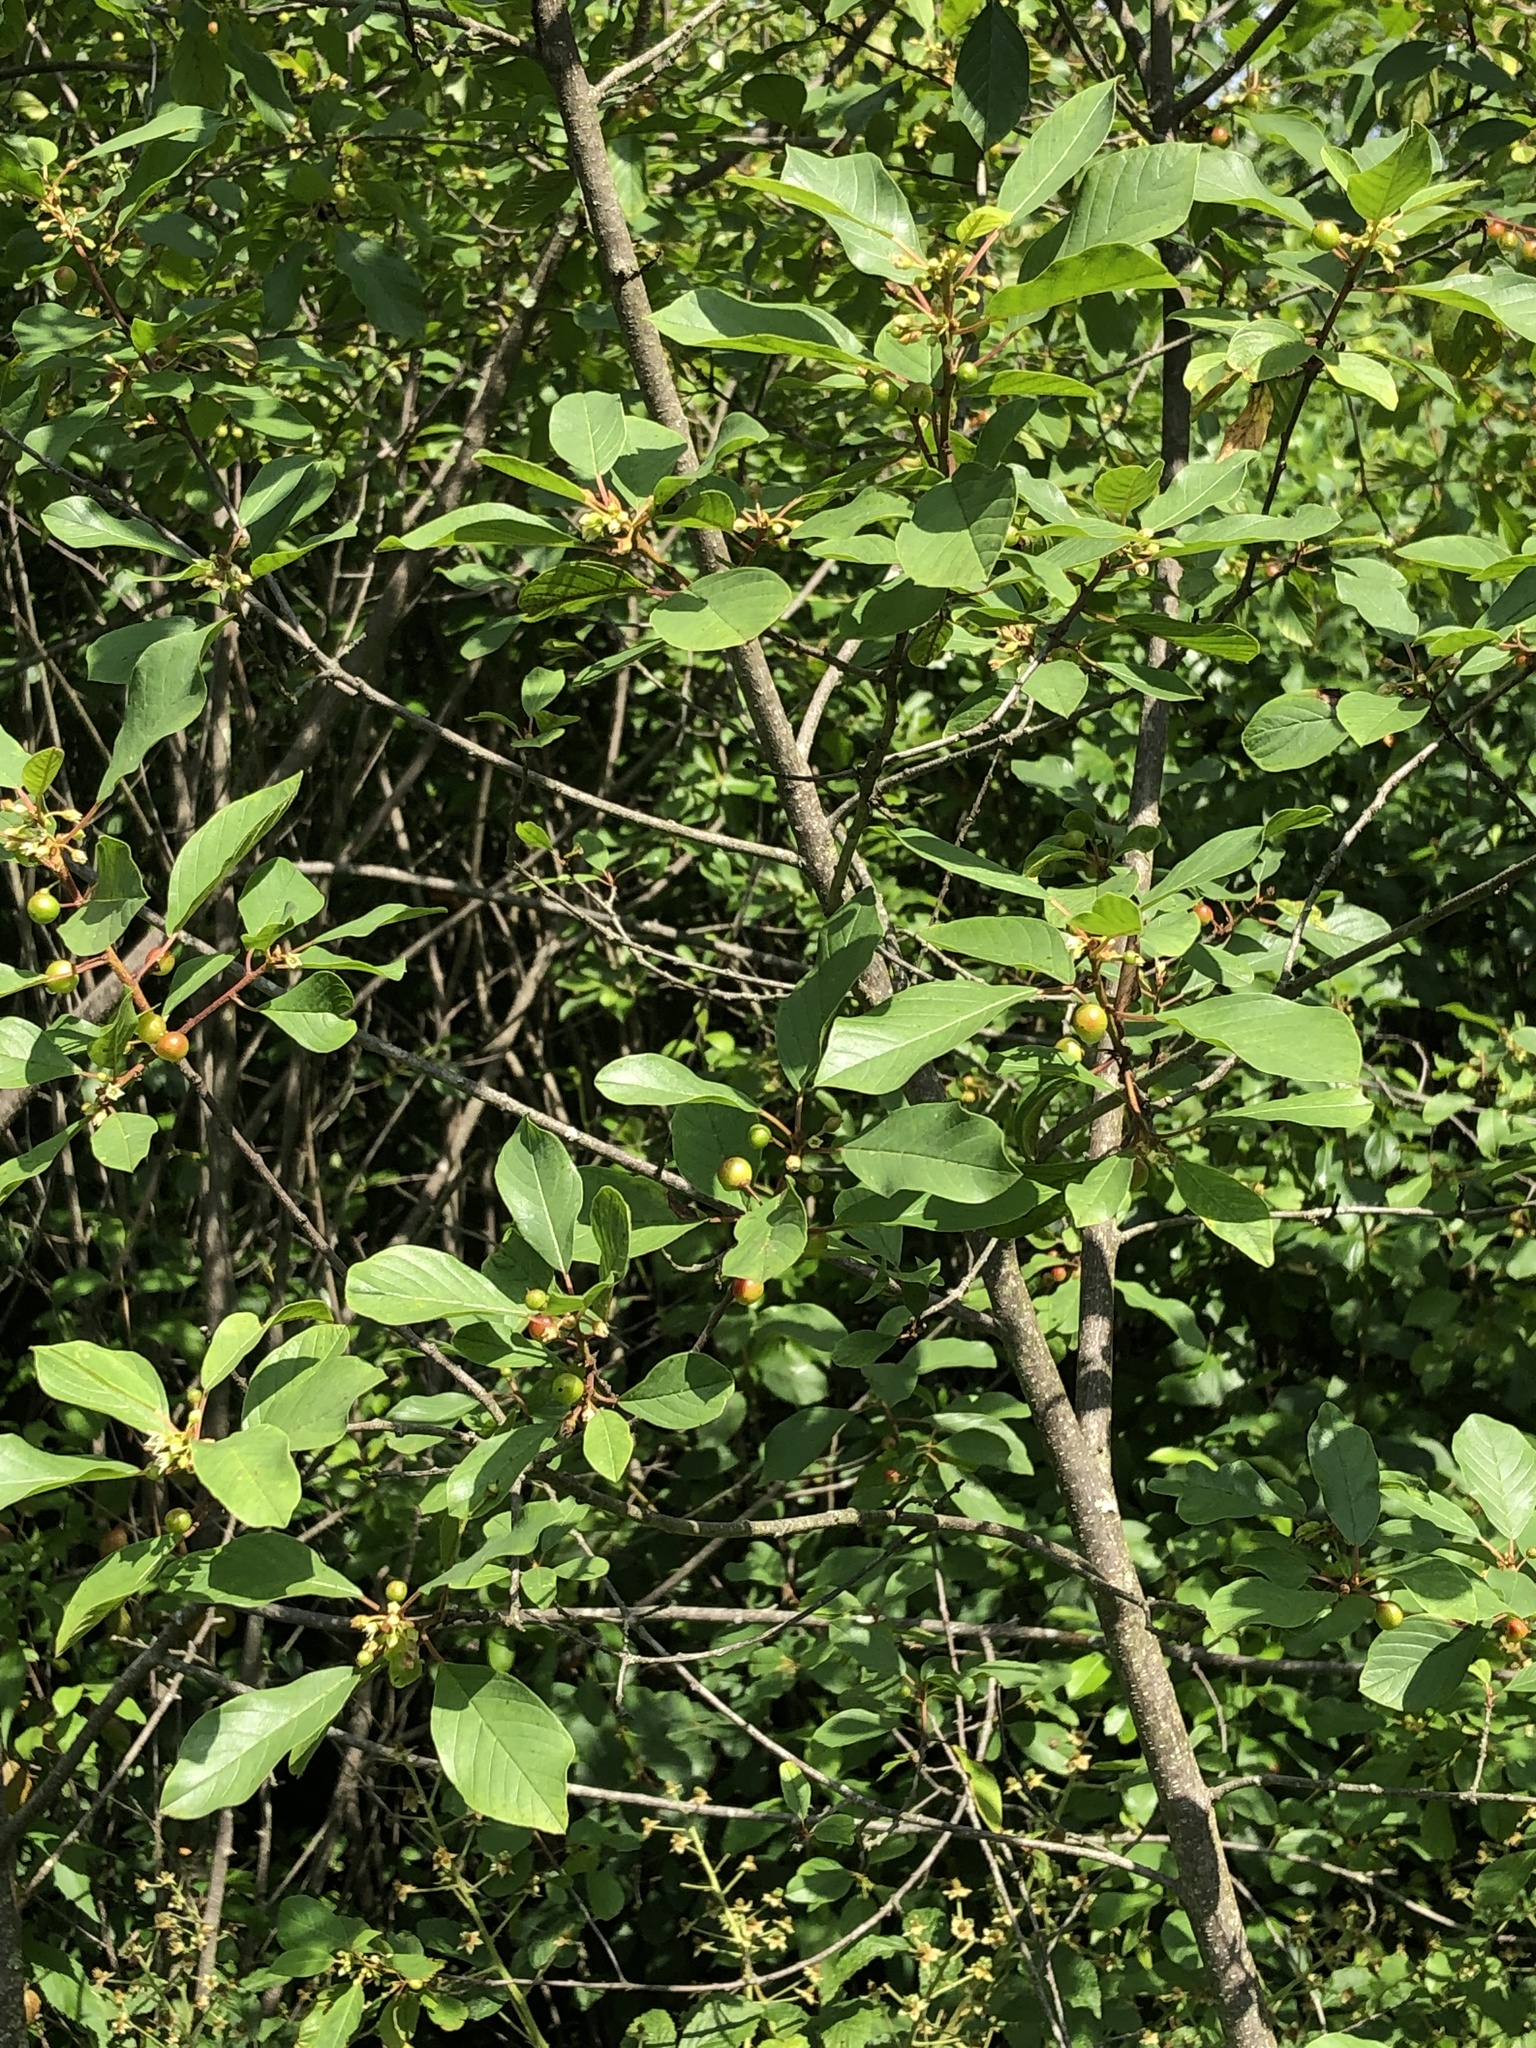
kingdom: Plantae
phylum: Tracheophyta
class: Magnoliopsida
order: Rosales
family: Rhamnaceae
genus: Frangula
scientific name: Frangula alnus
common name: Alder buckthorn
